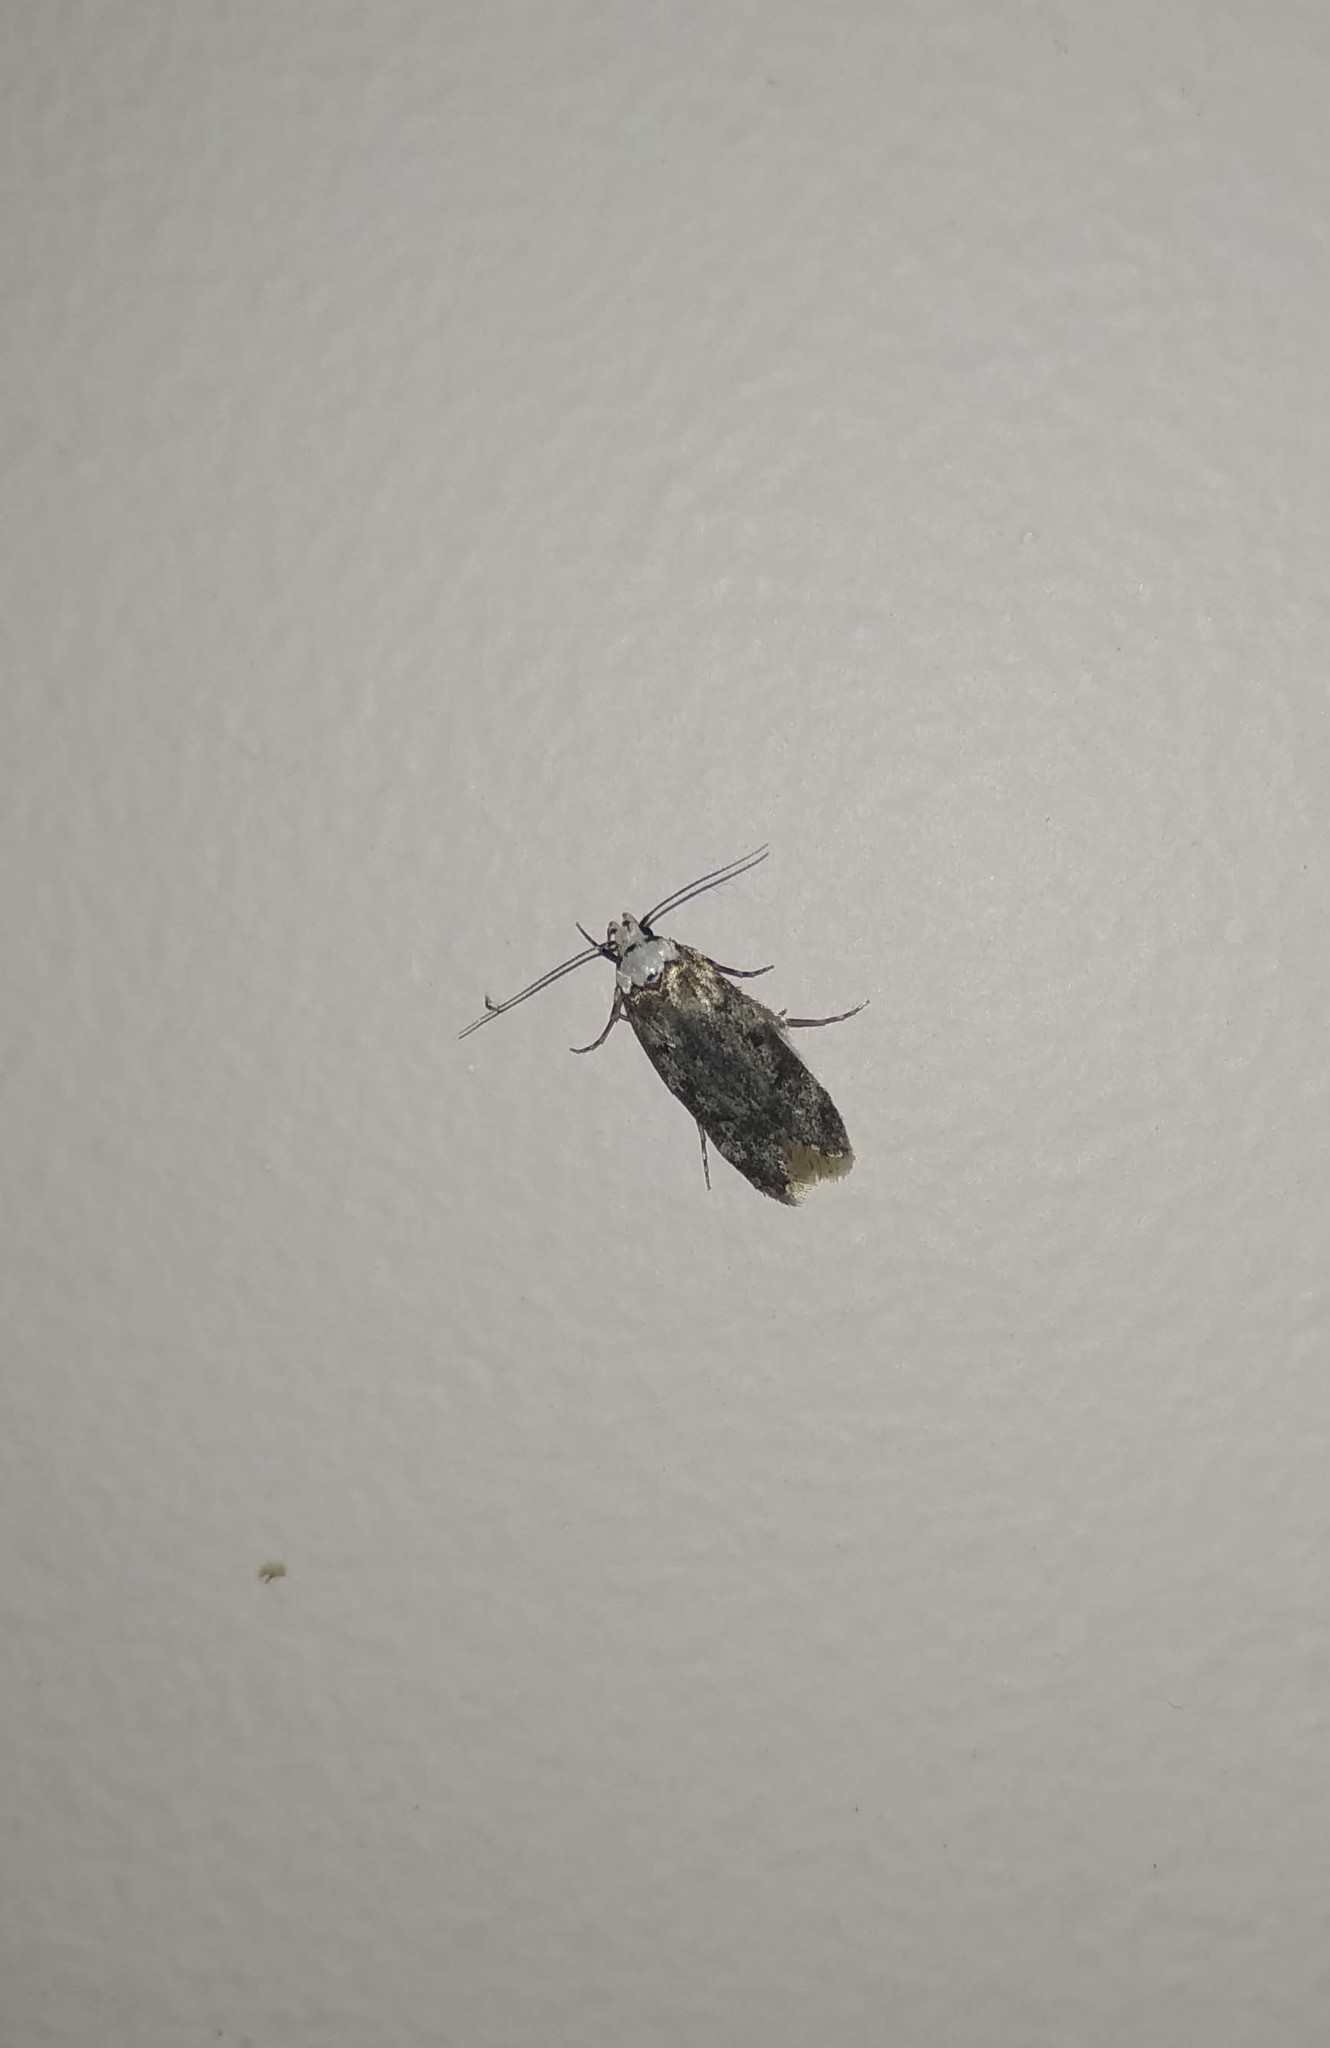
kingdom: Animalia
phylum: Arthropoda
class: Insecta
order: Lepidoptera
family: Oecophoridae
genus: Endrosis
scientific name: Endrosis sarcitrella
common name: White-shouldered house moth
